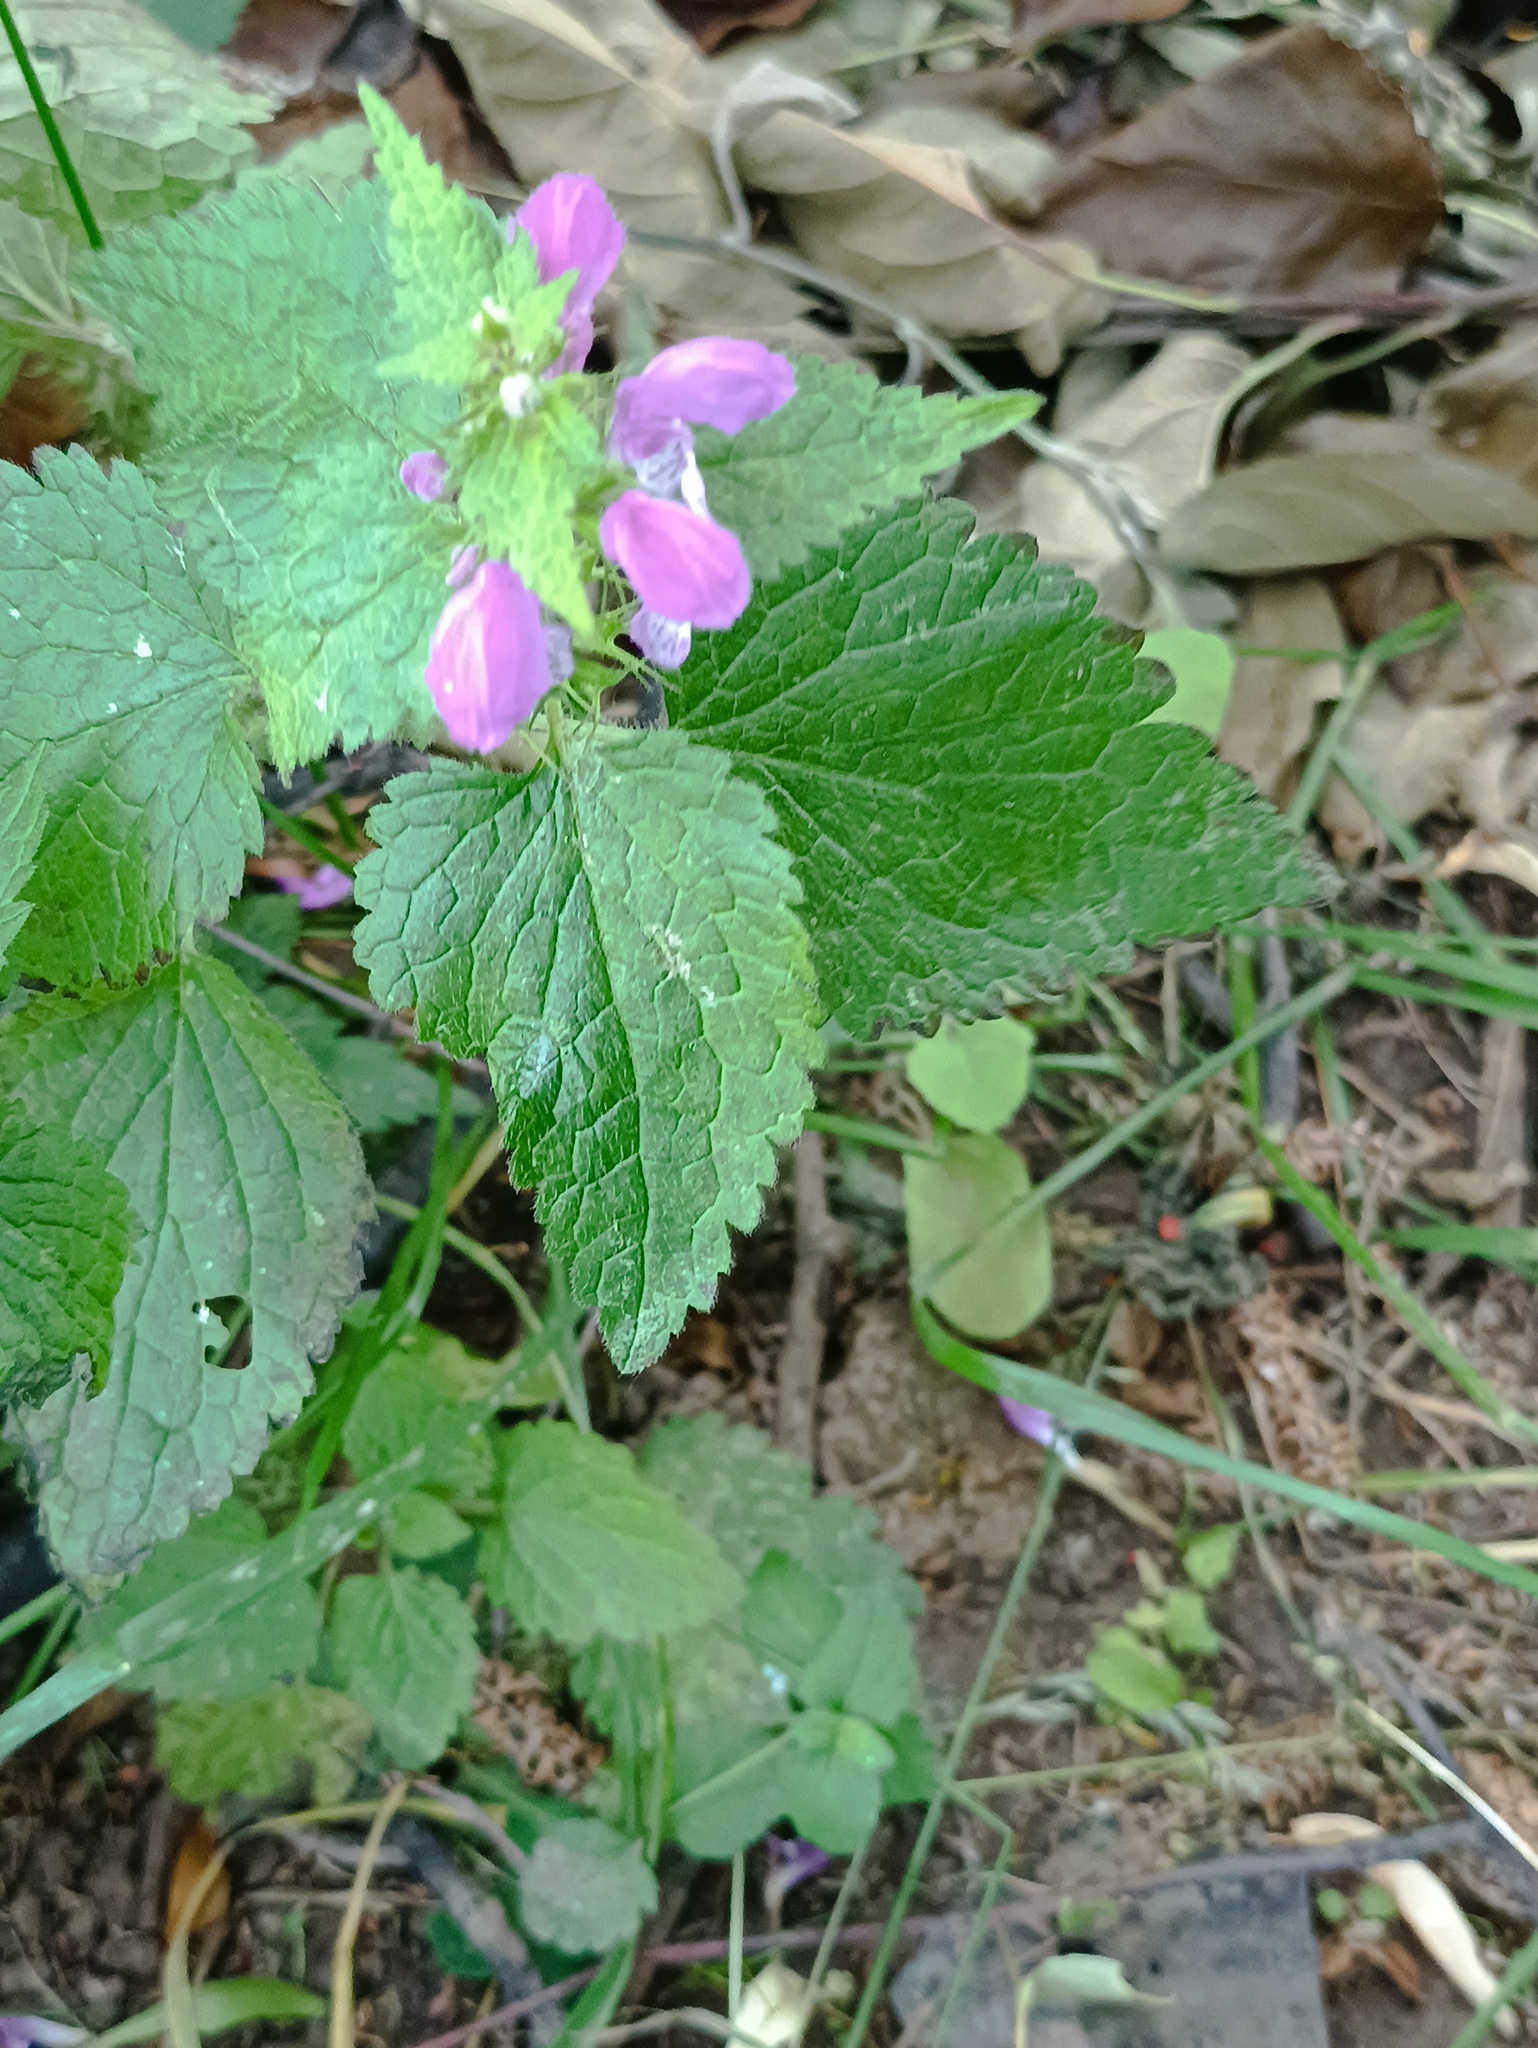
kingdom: Plantae
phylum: Tracheophyta
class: Magnoliopsida
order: Lamiales
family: Lamiaceae
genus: Lamium
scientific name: Lamium maculatum
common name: Spotted dead-nettle
